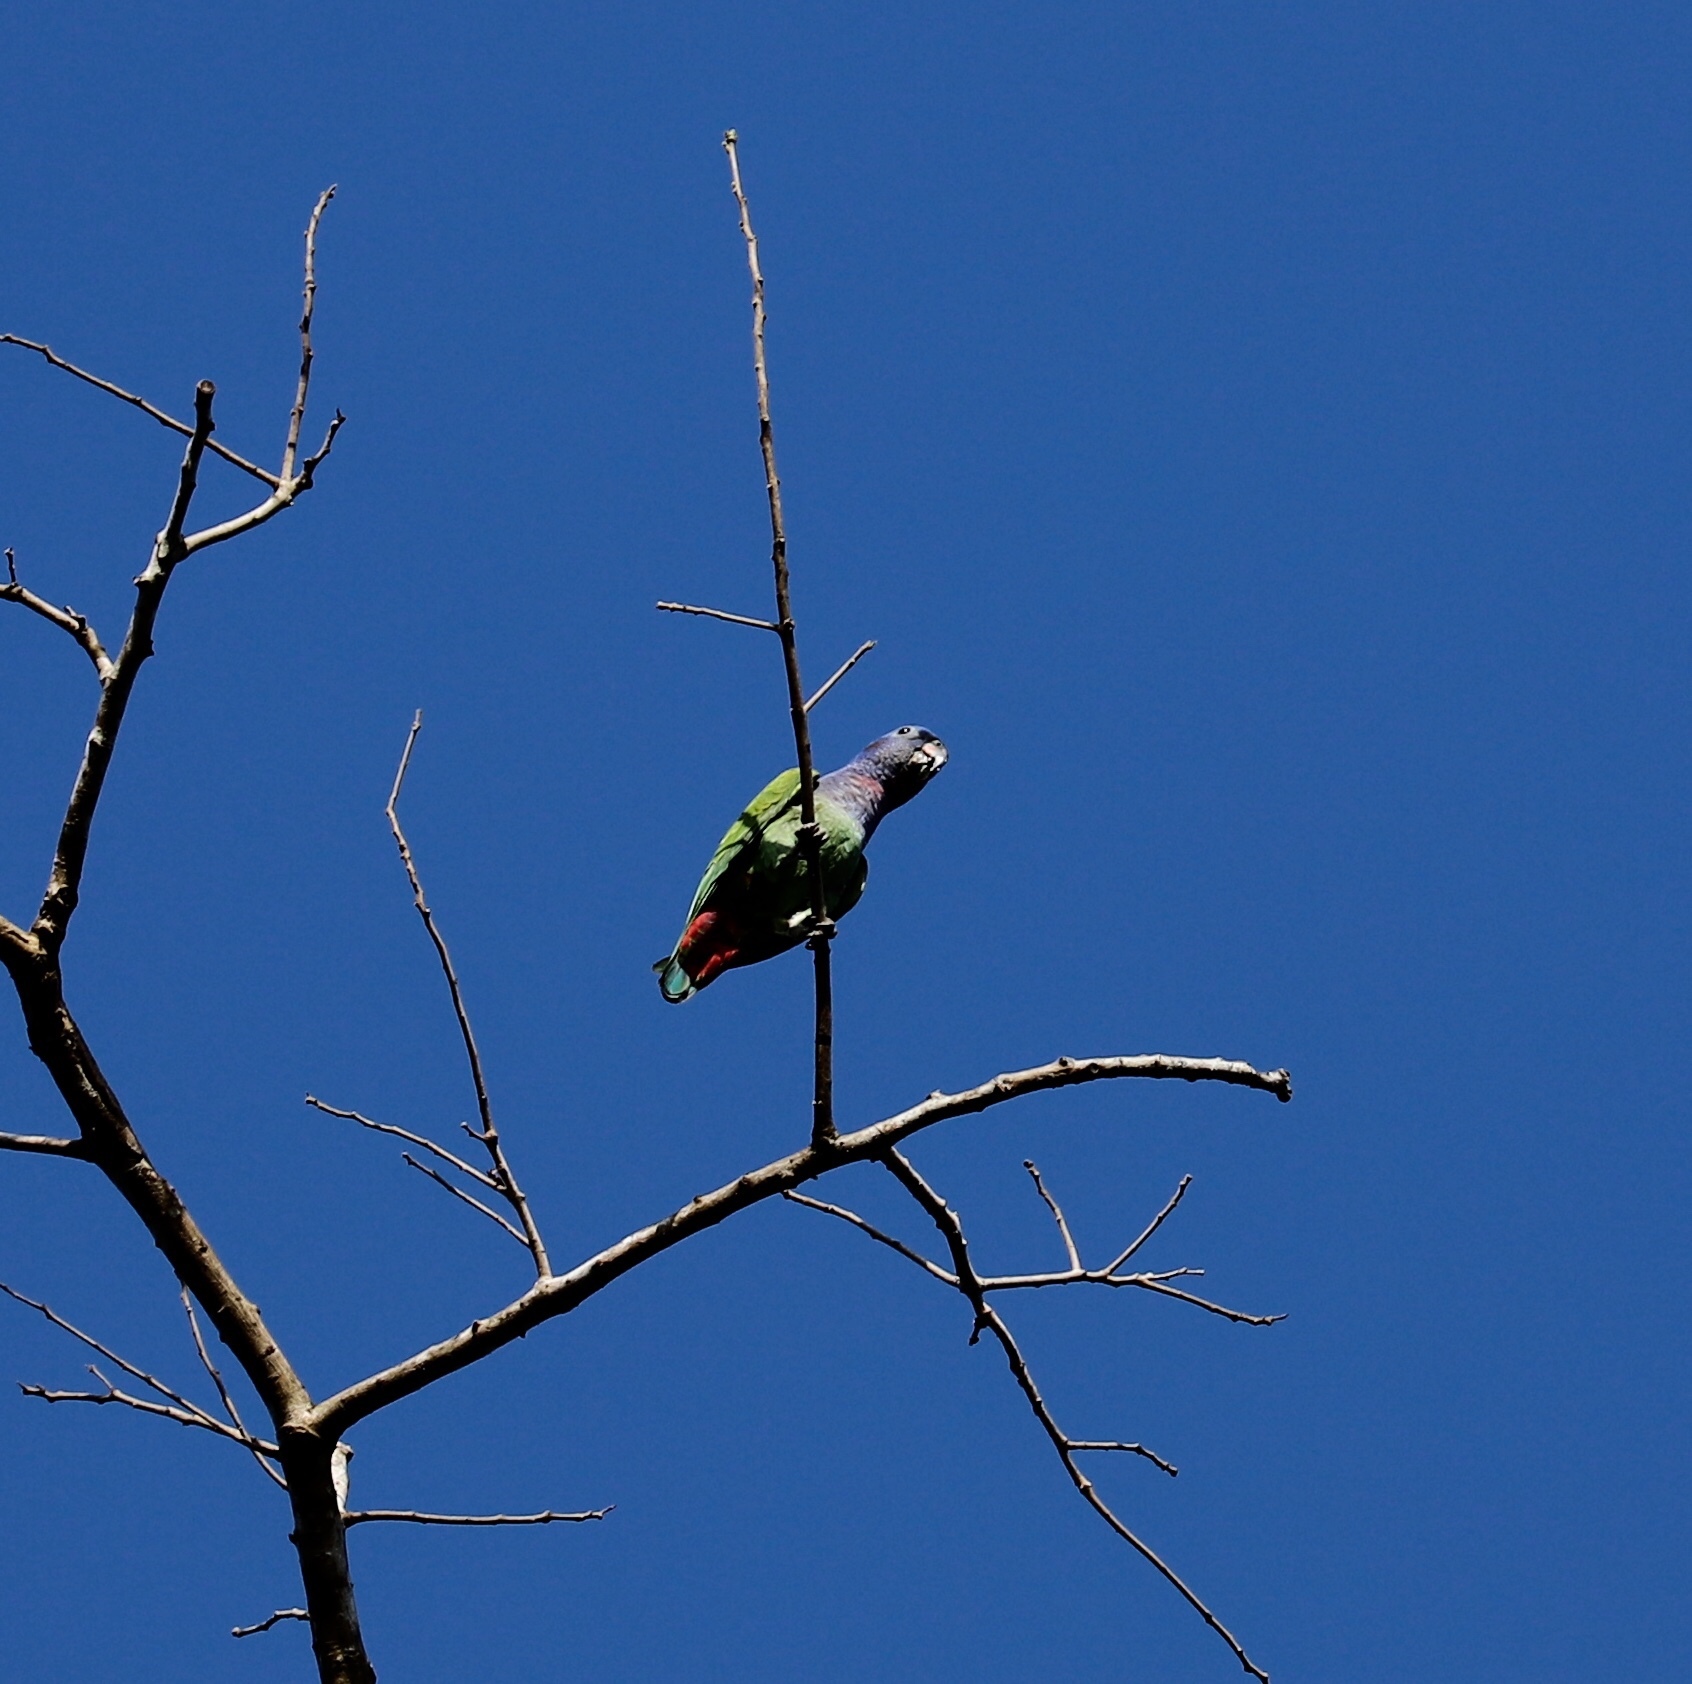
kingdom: Animalia
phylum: Chordata
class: Aves
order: Psittaciformes
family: Psittacidae
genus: Pionus
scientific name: Pionus menstruus
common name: Blue-headed parrot
